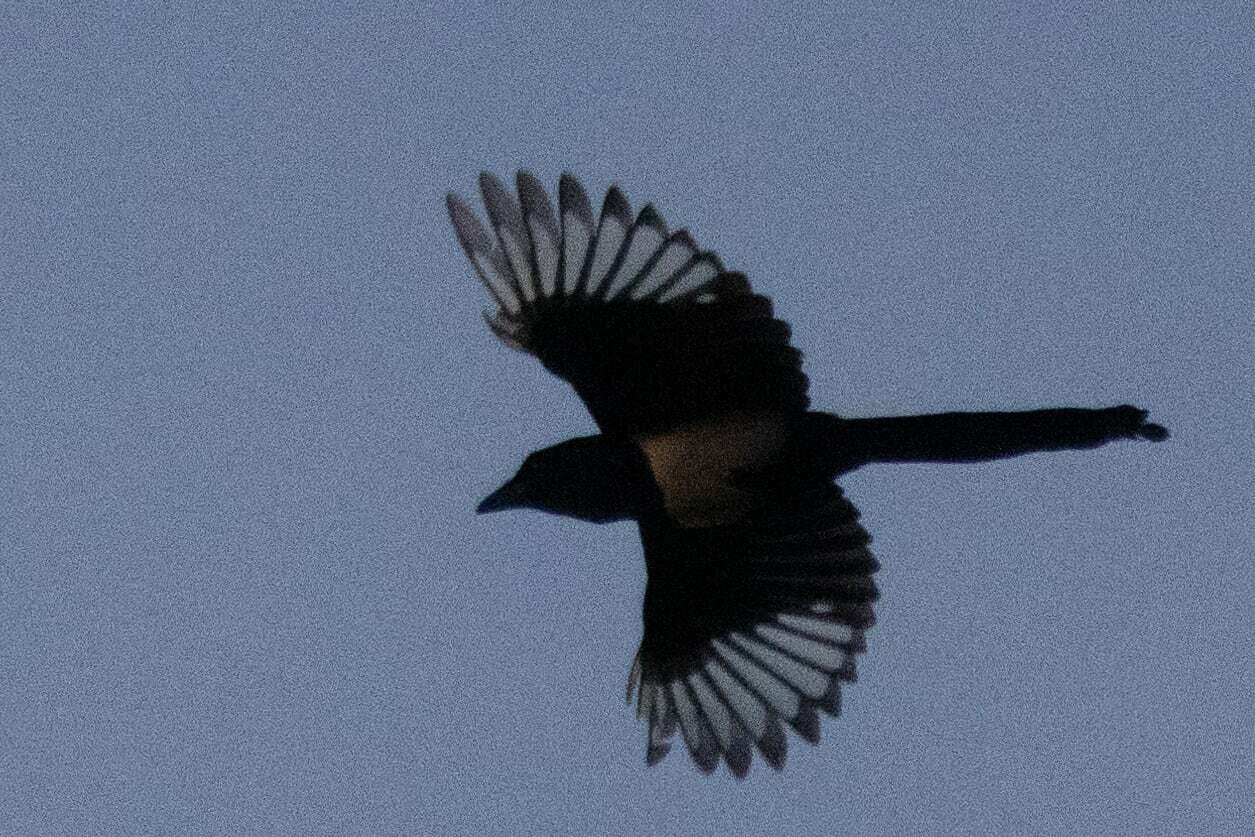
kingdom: Animalia
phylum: Chordata
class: Aves
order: Passeriformes
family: Corvidae
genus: Pica
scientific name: Pica pica
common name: Eurasian magpie
